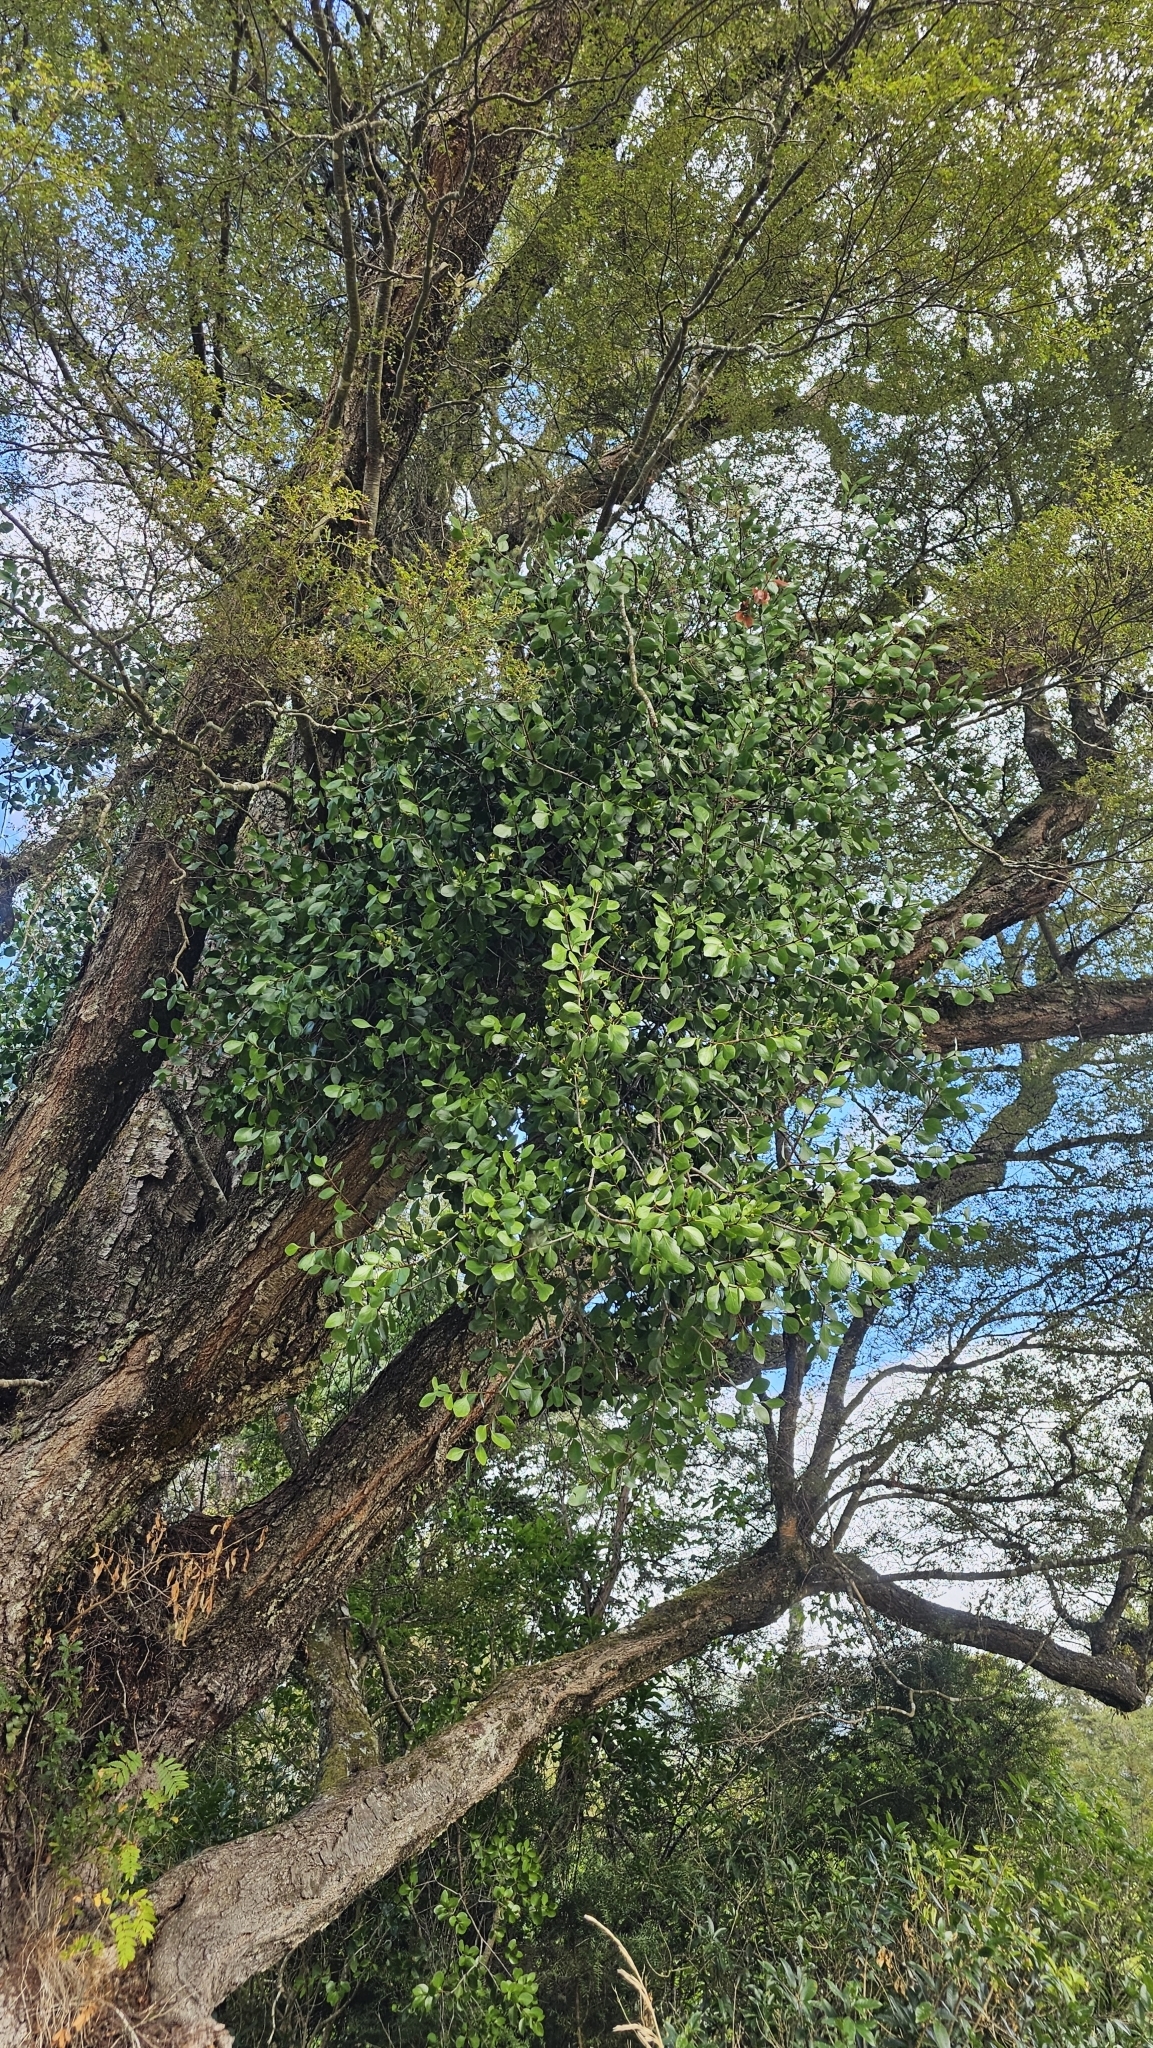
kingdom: Plantae
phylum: Tracheophyta
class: Magnoliopsida
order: Santalales
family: Loranthaceae
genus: Peraxilla
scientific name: Peraxilla colensoi
